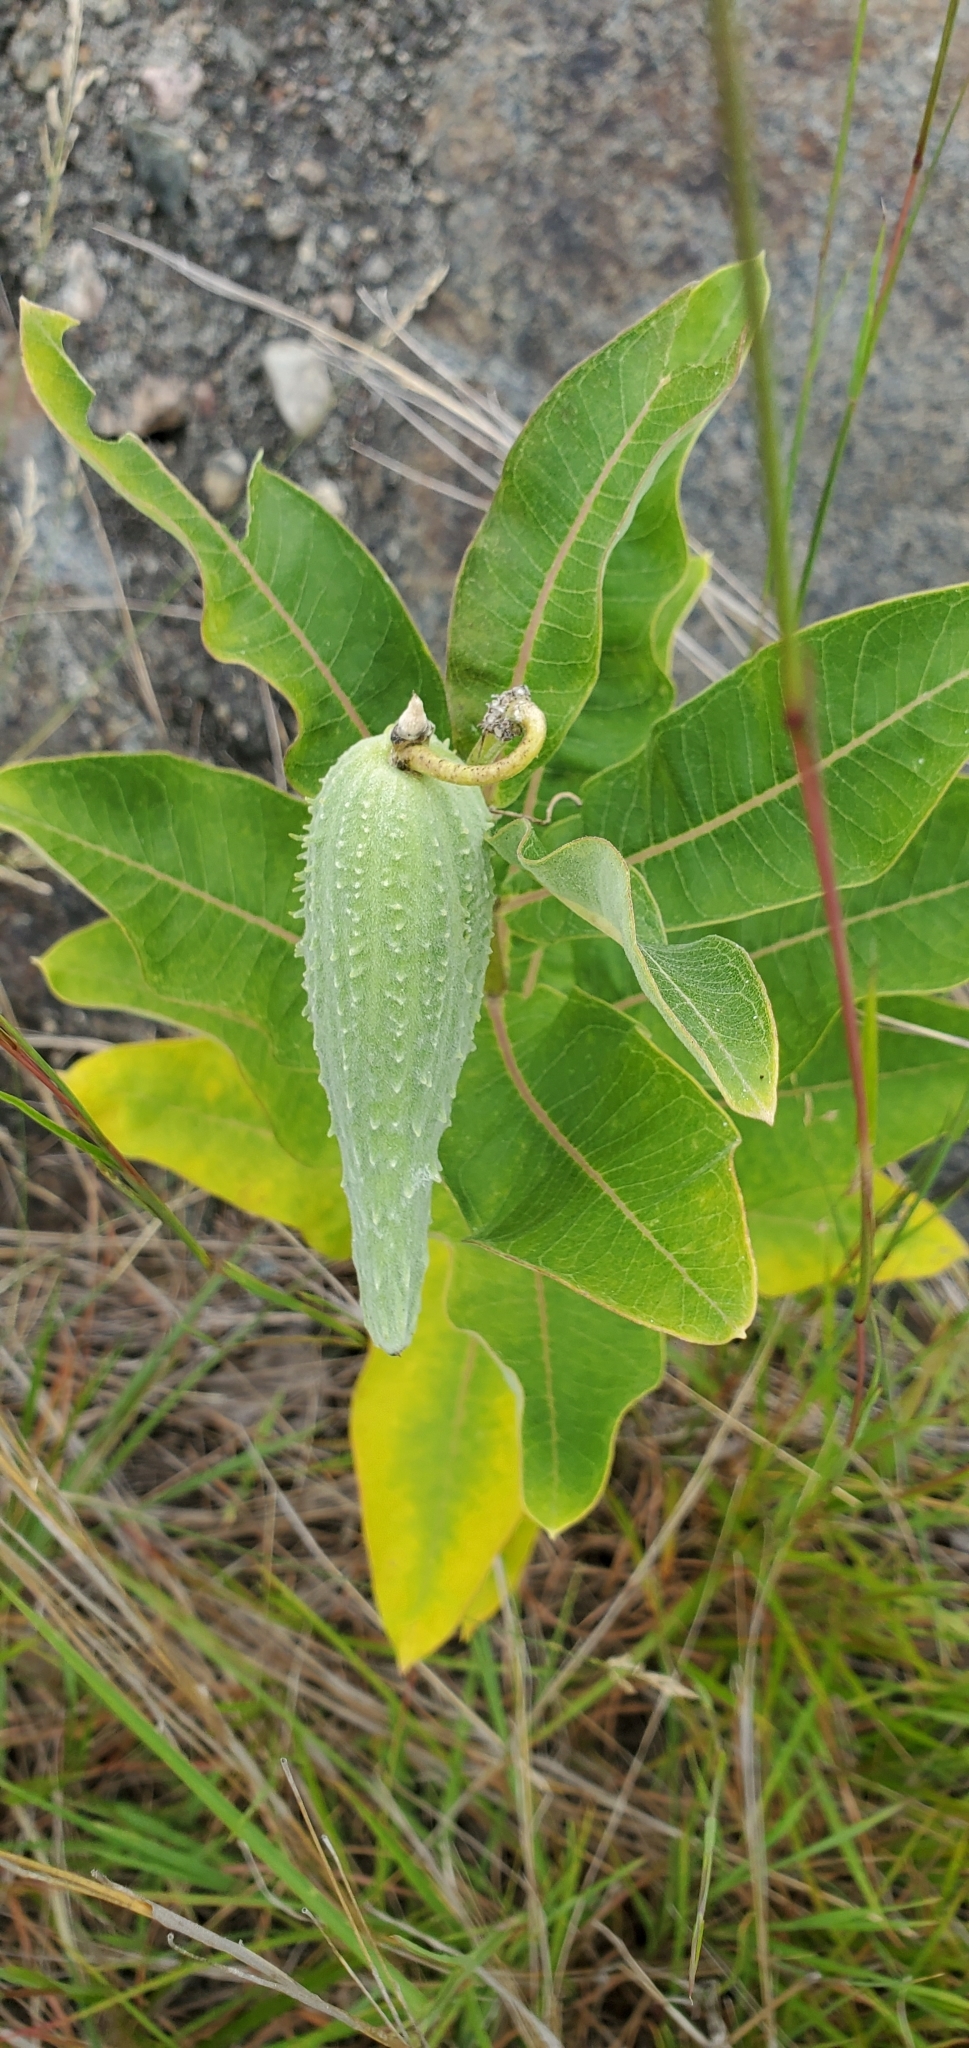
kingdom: Plantae
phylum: Tracheophyta
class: Magnoliopsida
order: Gentianales
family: Apocynaceae
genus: Asclepias
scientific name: Asclepias syriaca
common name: Common milkweed
